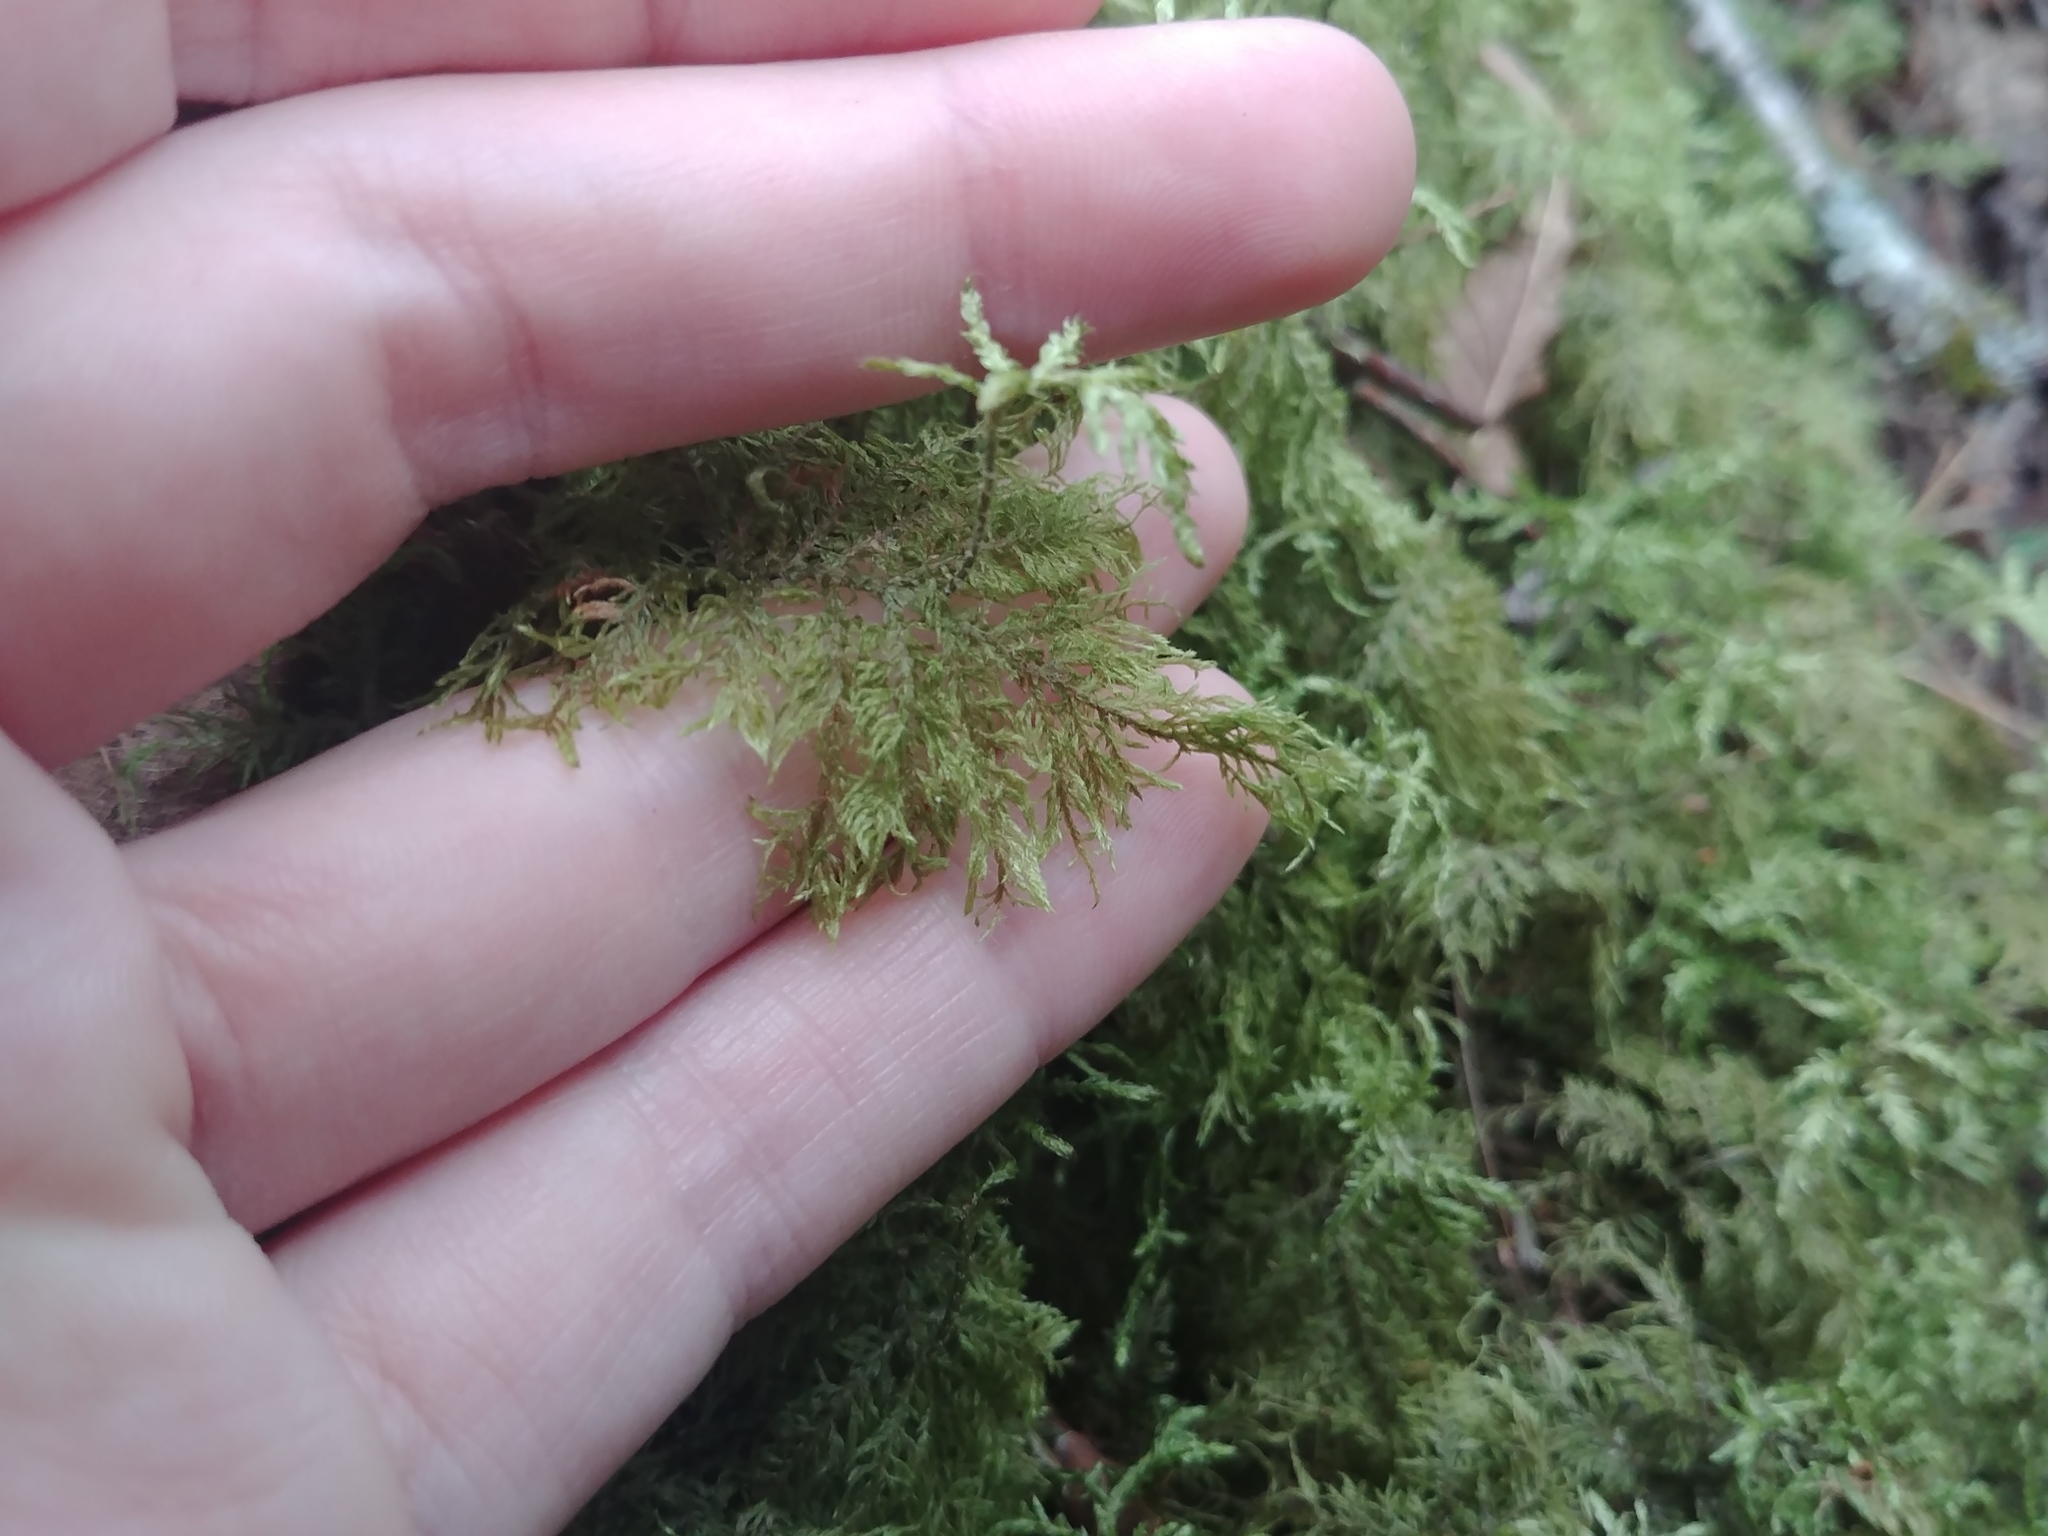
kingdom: Plantae
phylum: Bryophyta
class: Bryopsida
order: Hypnales
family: Hylocomiaceae
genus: Hylocomium
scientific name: Hylocomium splendens
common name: Stairstep moss
